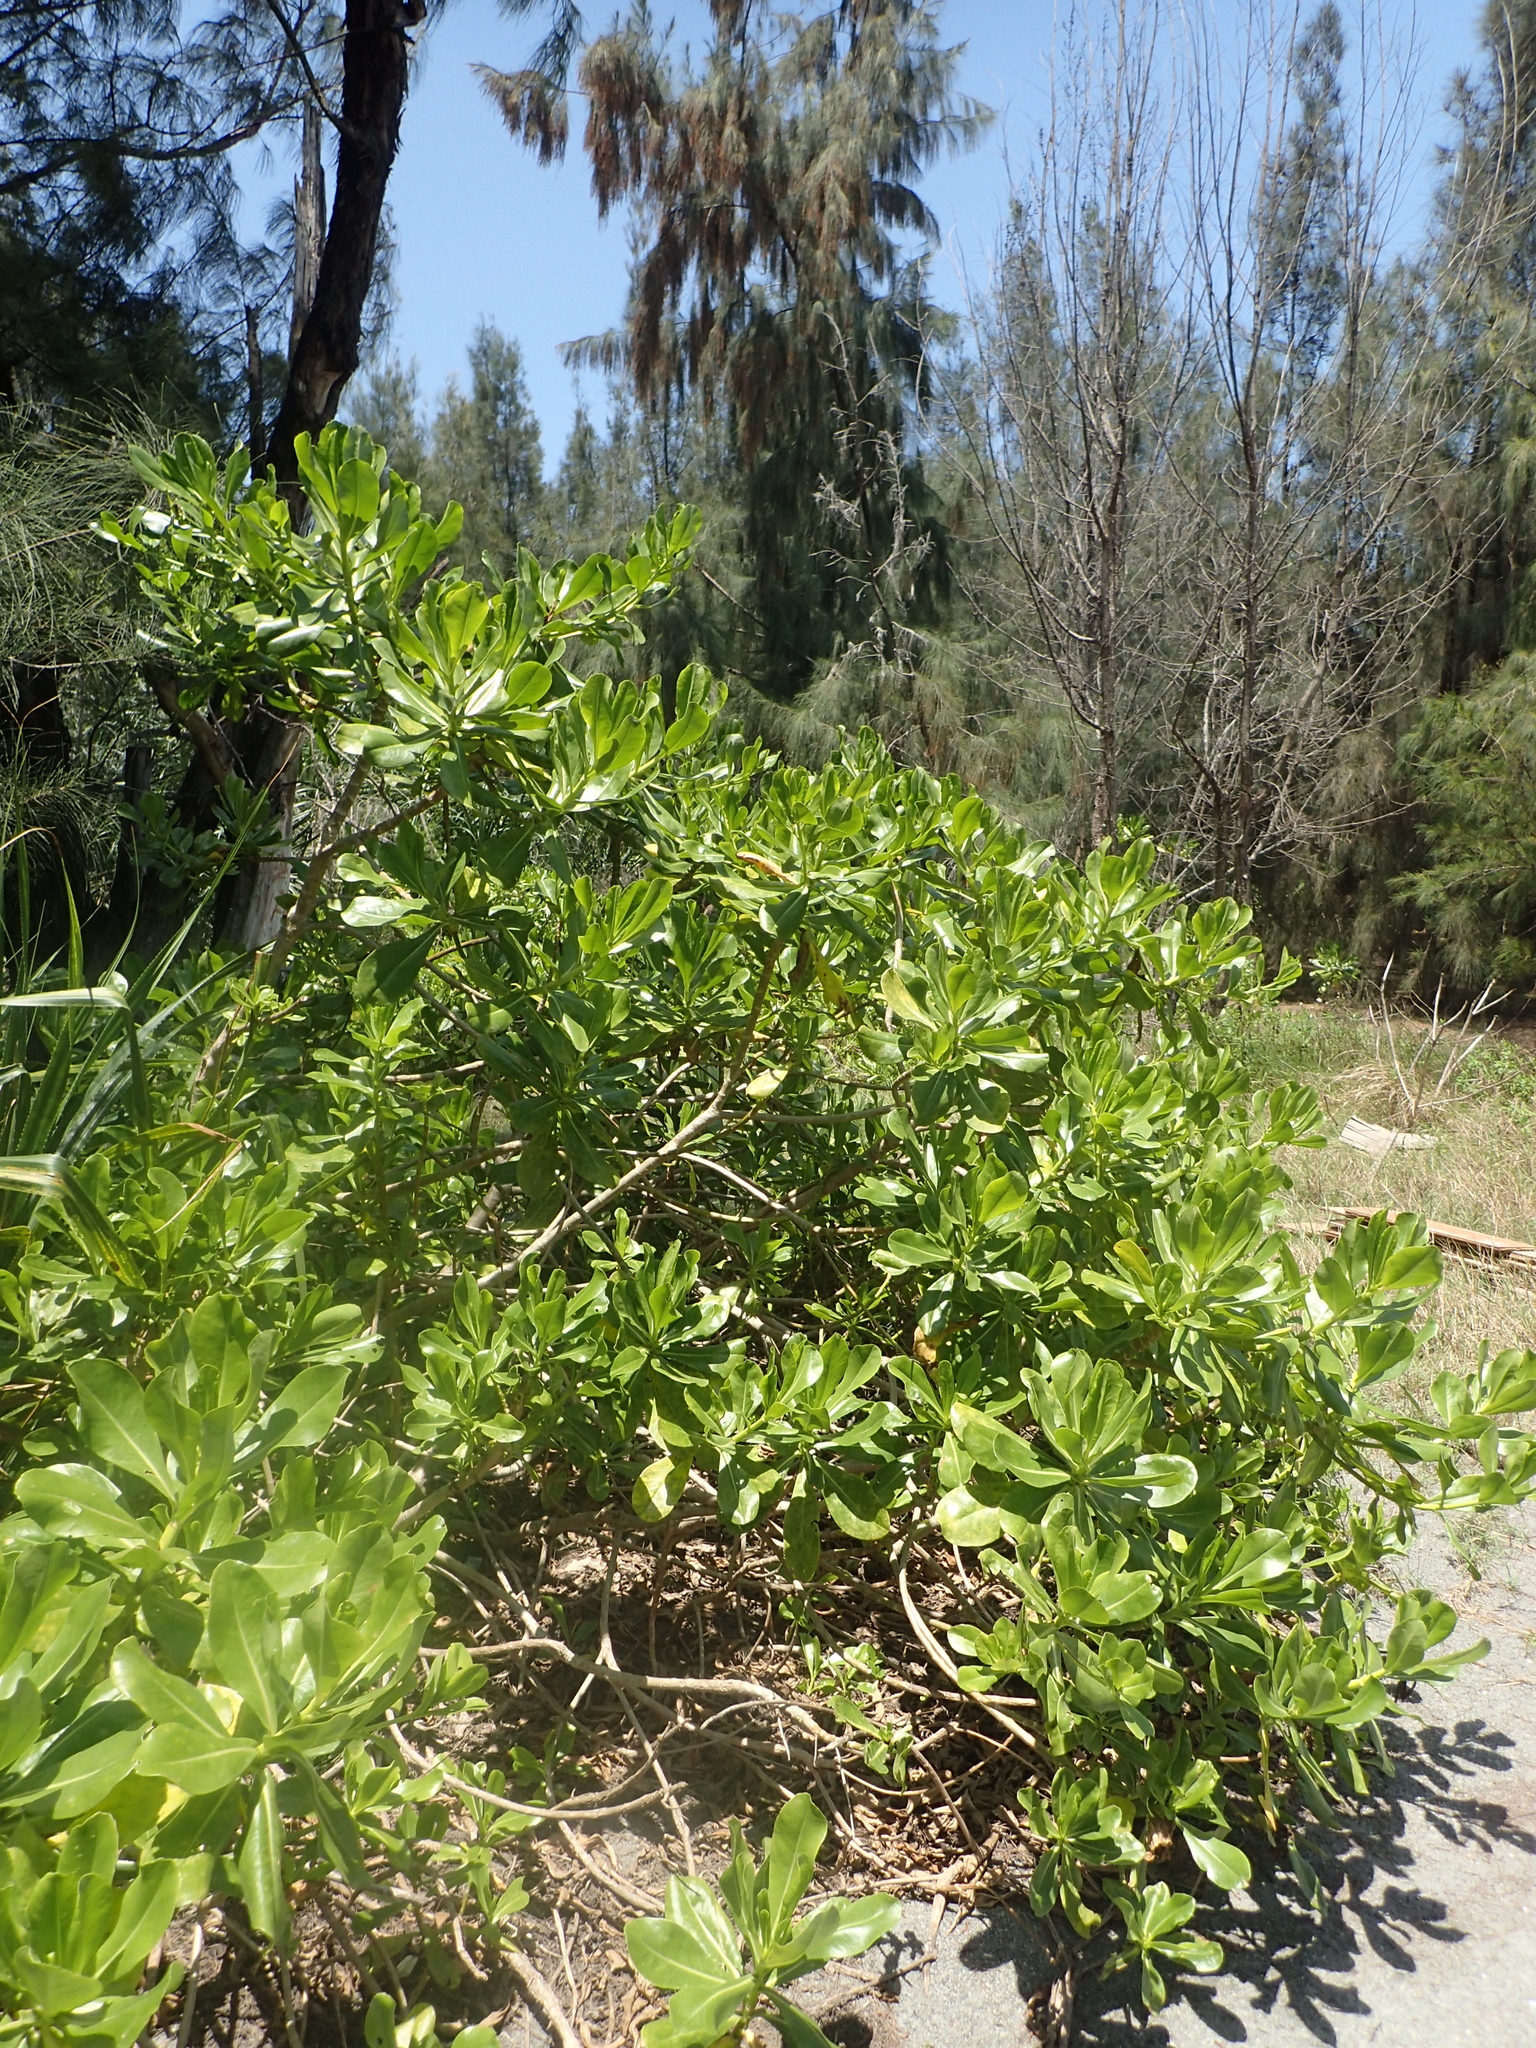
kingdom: Plantae
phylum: Tracheophyta
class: Magnoliopsida
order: Asterales
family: Goodeniaceae
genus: Scaevola
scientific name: Scaevola taccada
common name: Sea lettucetree
